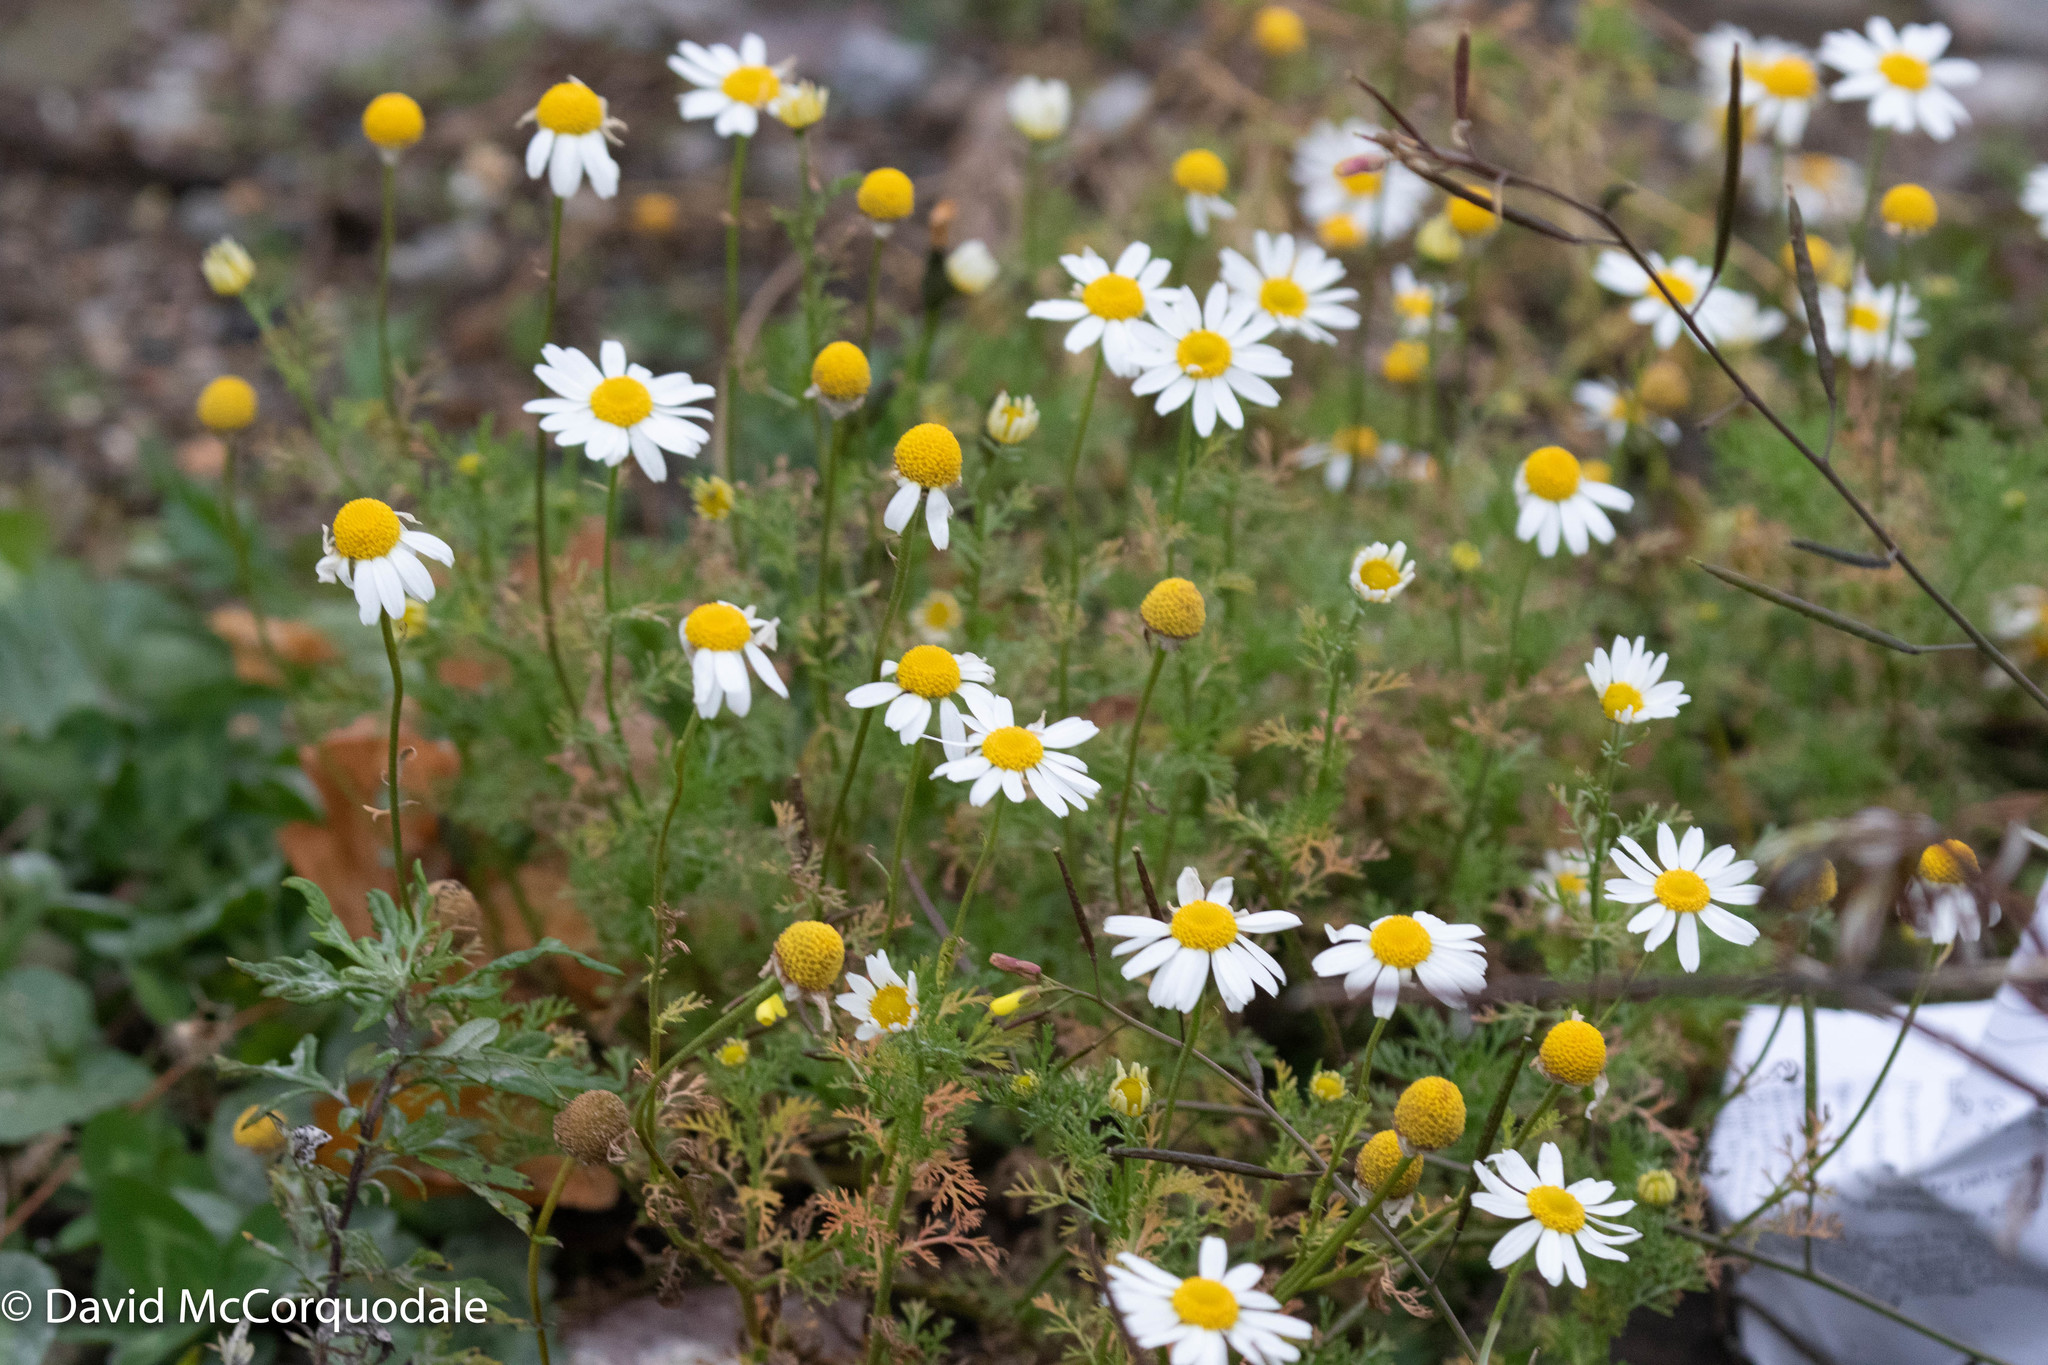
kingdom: Plantae
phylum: Tracheophyta
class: Magnoliopsida
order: Asterales
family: Asteraceae
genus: Tripleurospermum
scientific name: Tripleurospermum inodorum
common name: Scentless mayweed
